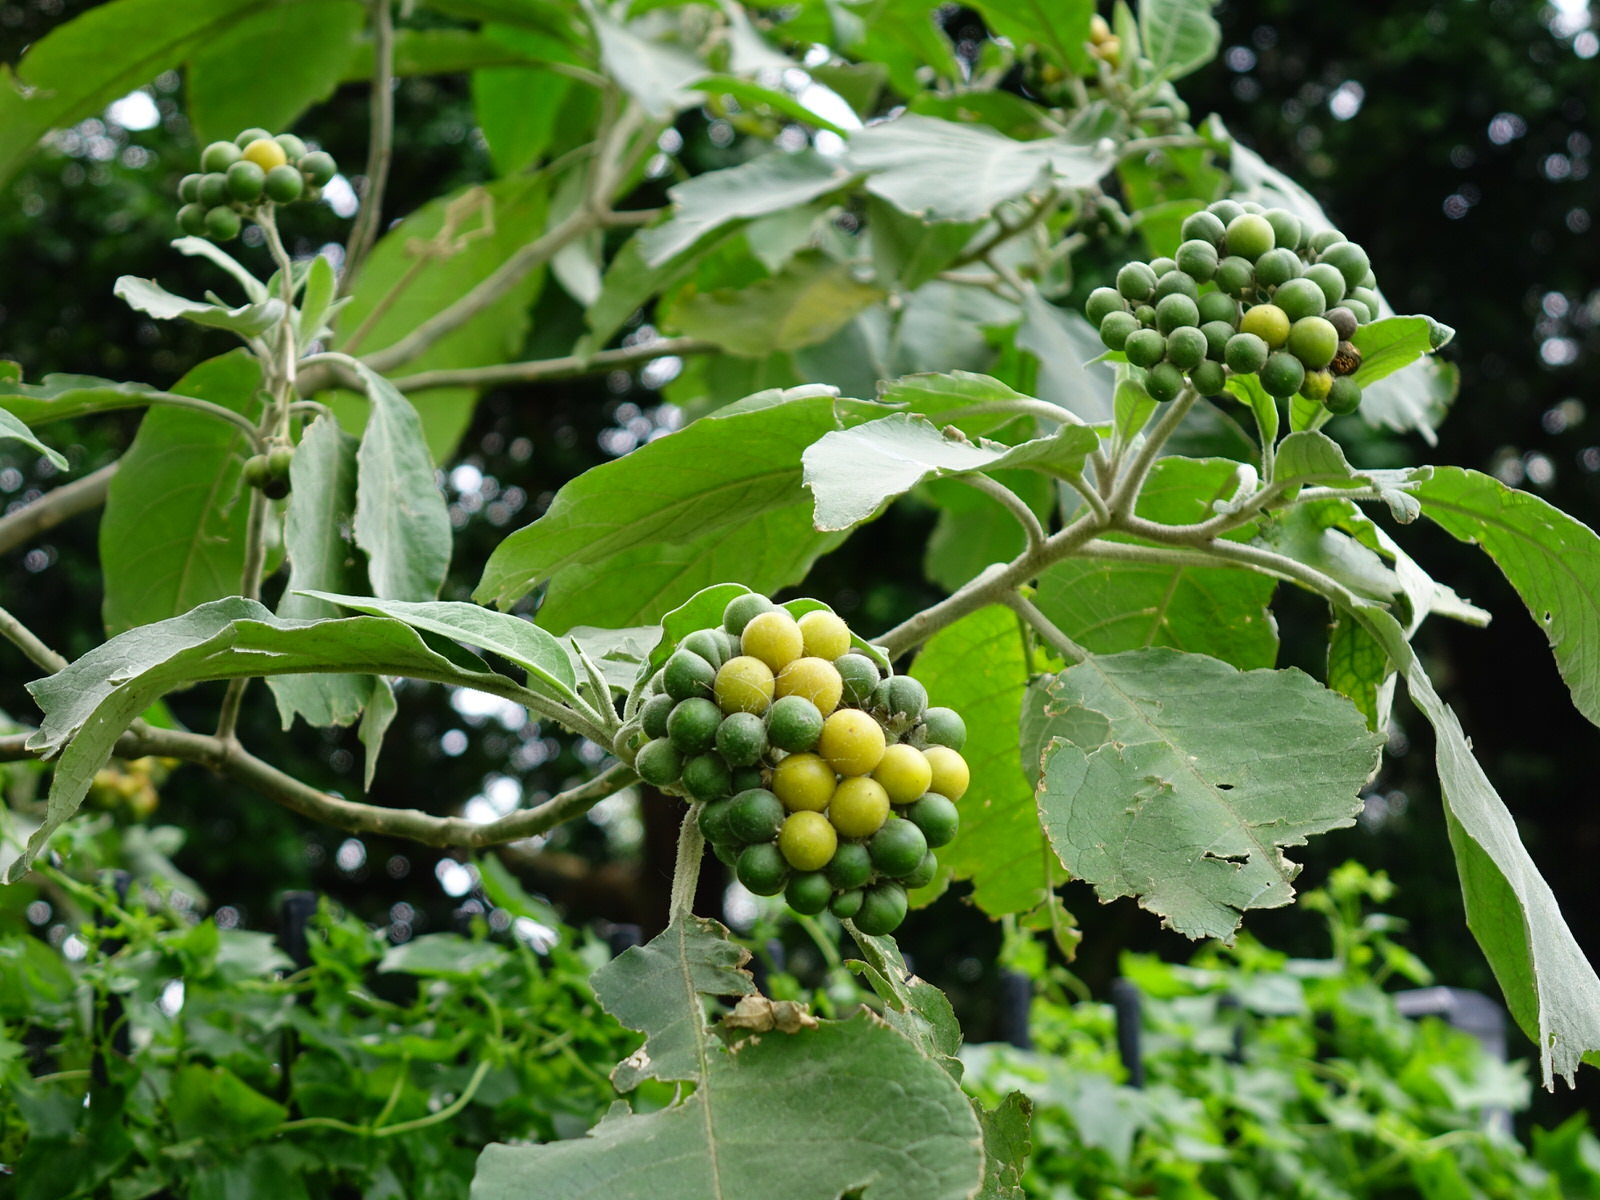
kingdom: Plantae
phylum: Tracheophyta
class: Magnoliopsida
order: Solanales
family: Solanaceae
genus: Solanum
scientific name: Solanum mauritianum
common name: Earleaf nightshade
